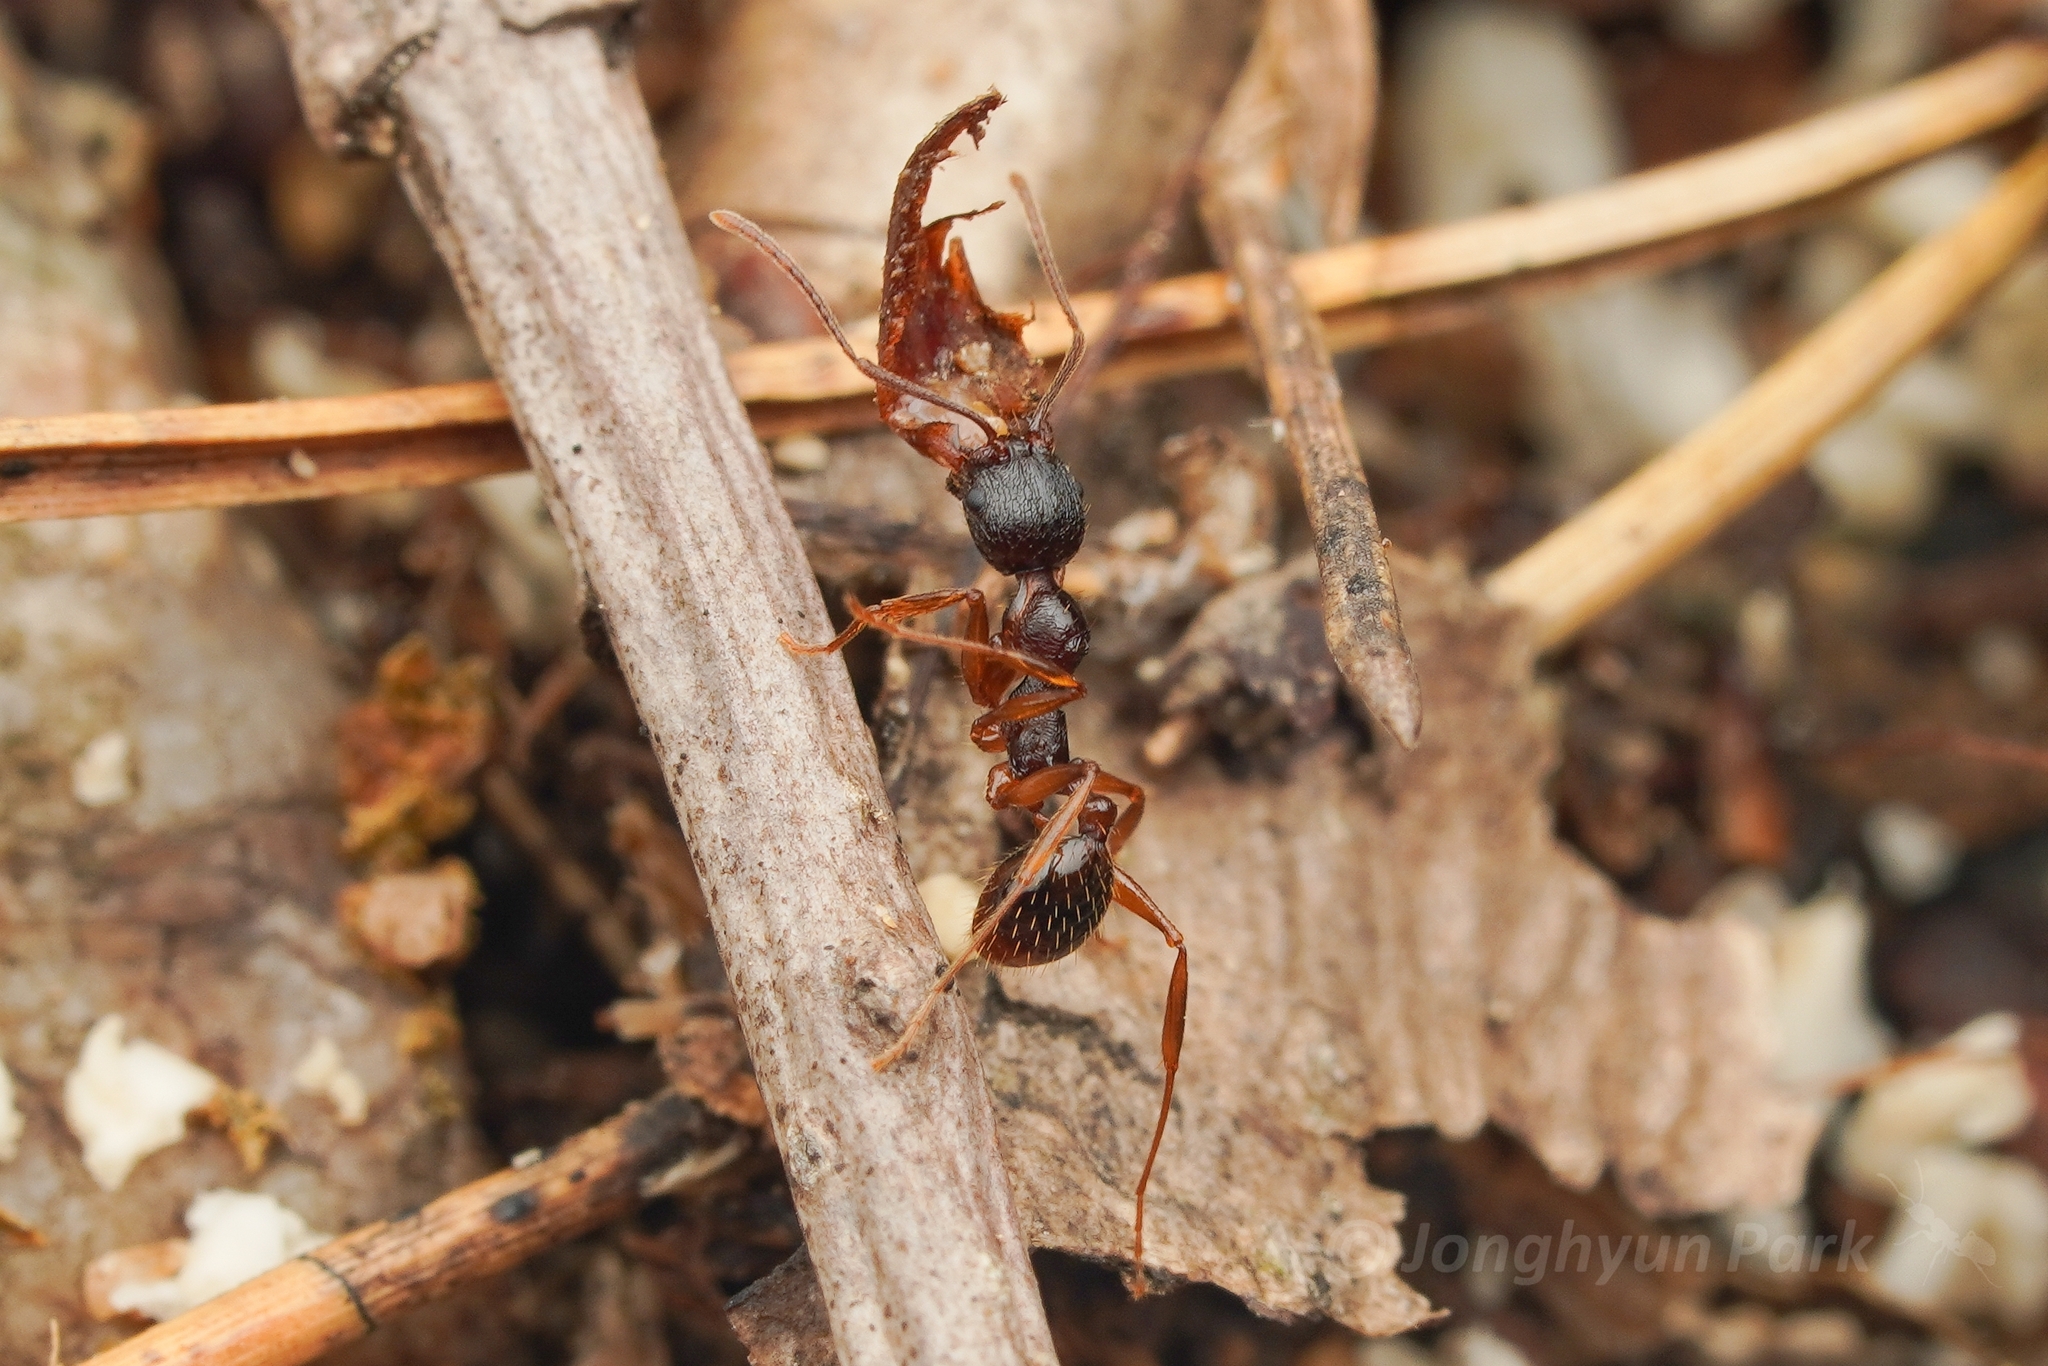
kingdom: Animalia
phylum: Arthropoda
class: Insecta
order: Hymenoptera
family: Formicidae
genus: Aphaenogaster
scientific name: Aphaenogaster japonica
